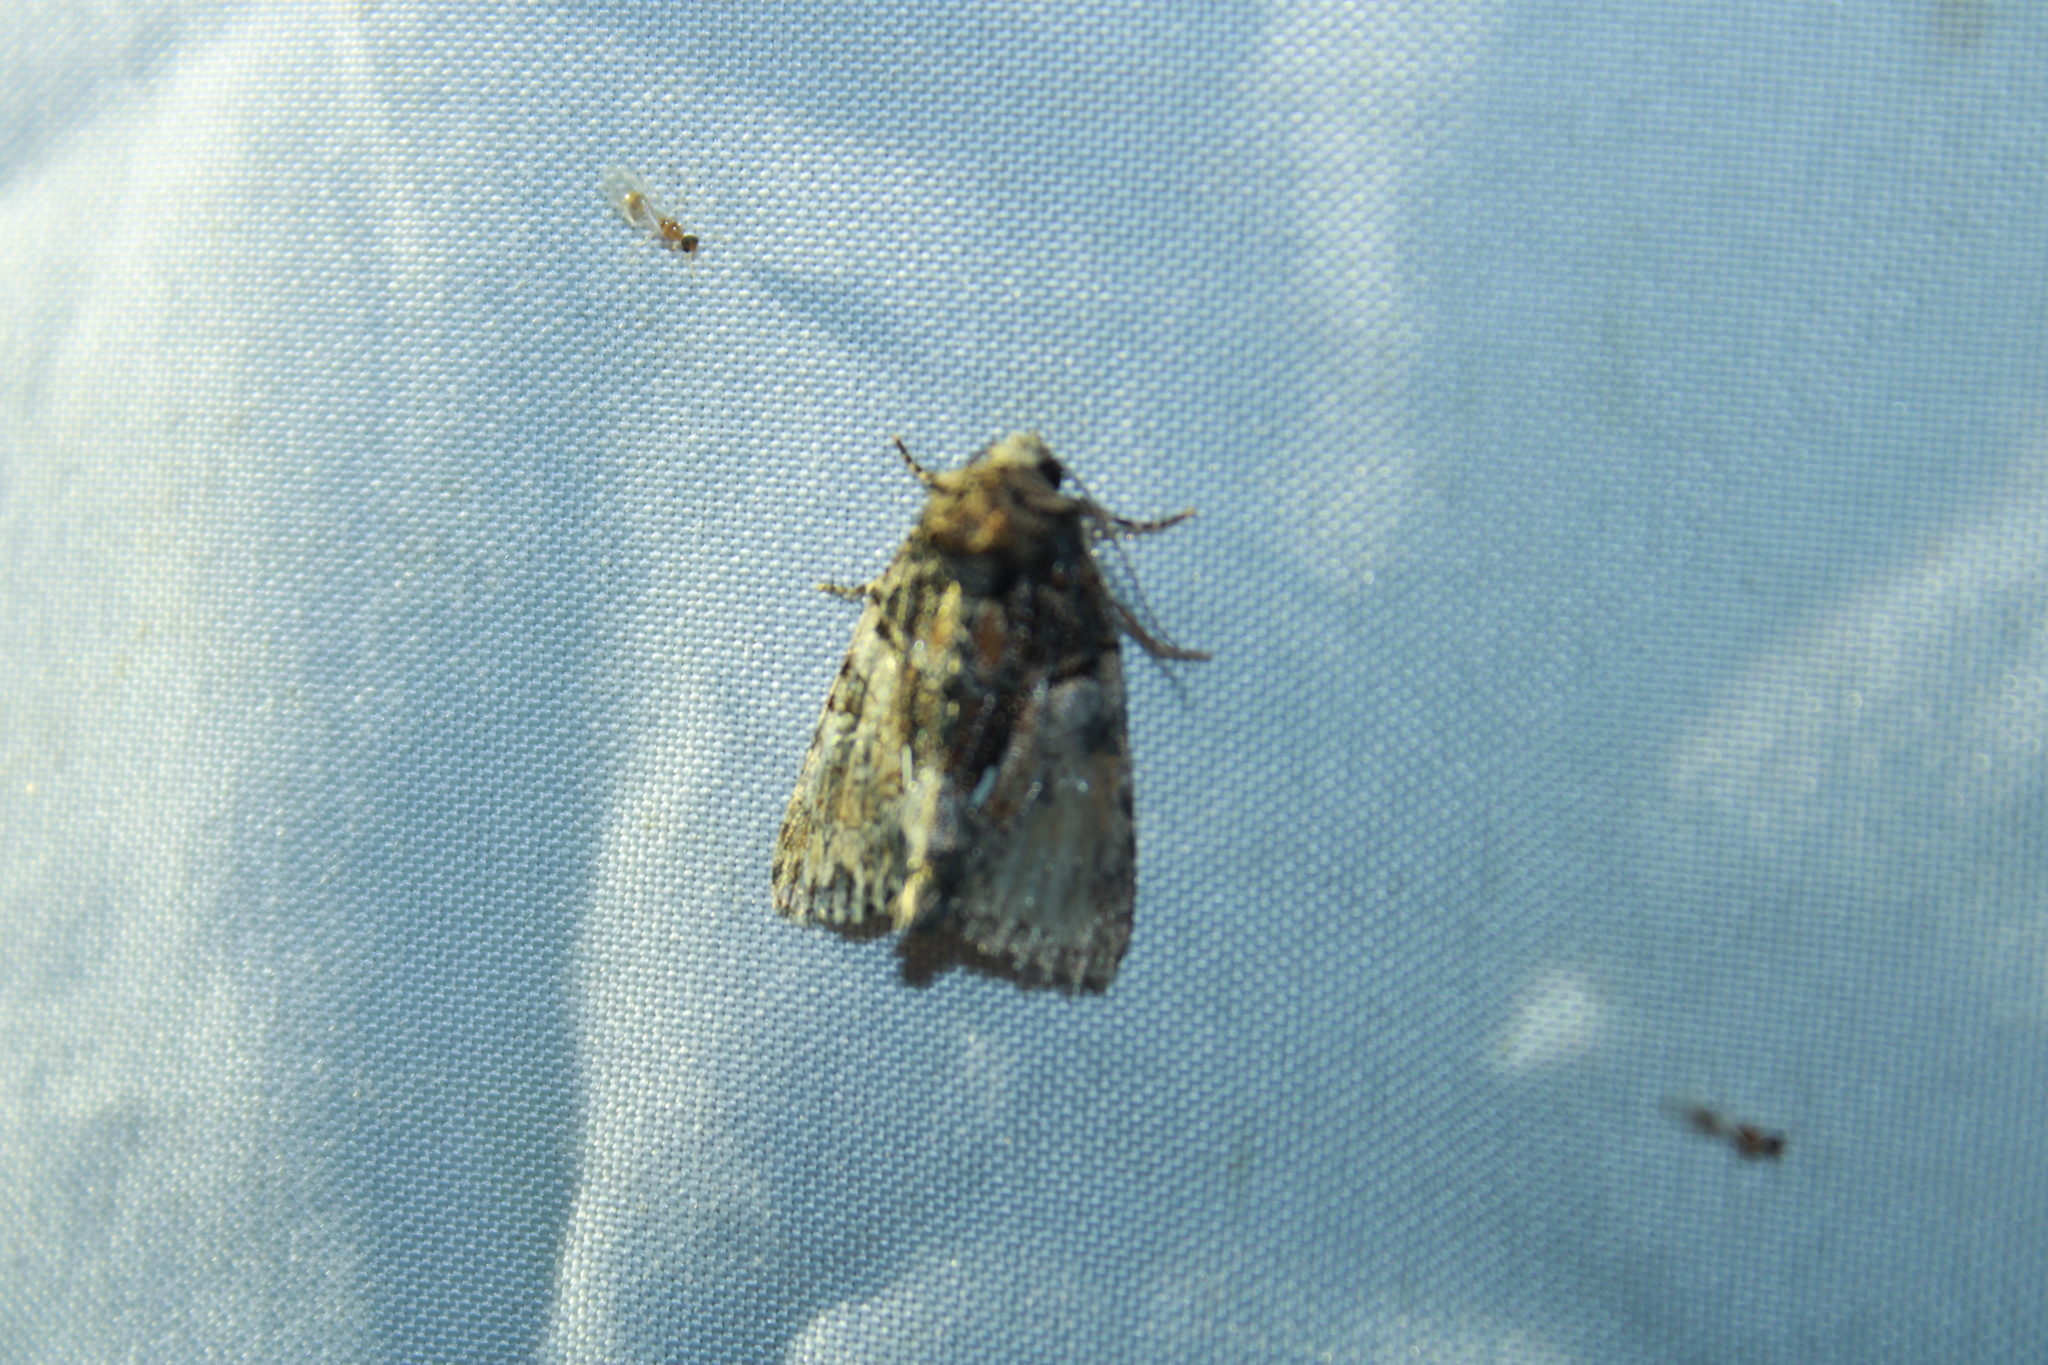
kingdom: Animalia
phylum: Arthropoda
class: Insecta
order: Lepidoptera
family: Noctuidae
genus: Chytonix
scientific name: Chytonix palliatricula
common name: Cloaked marvel
